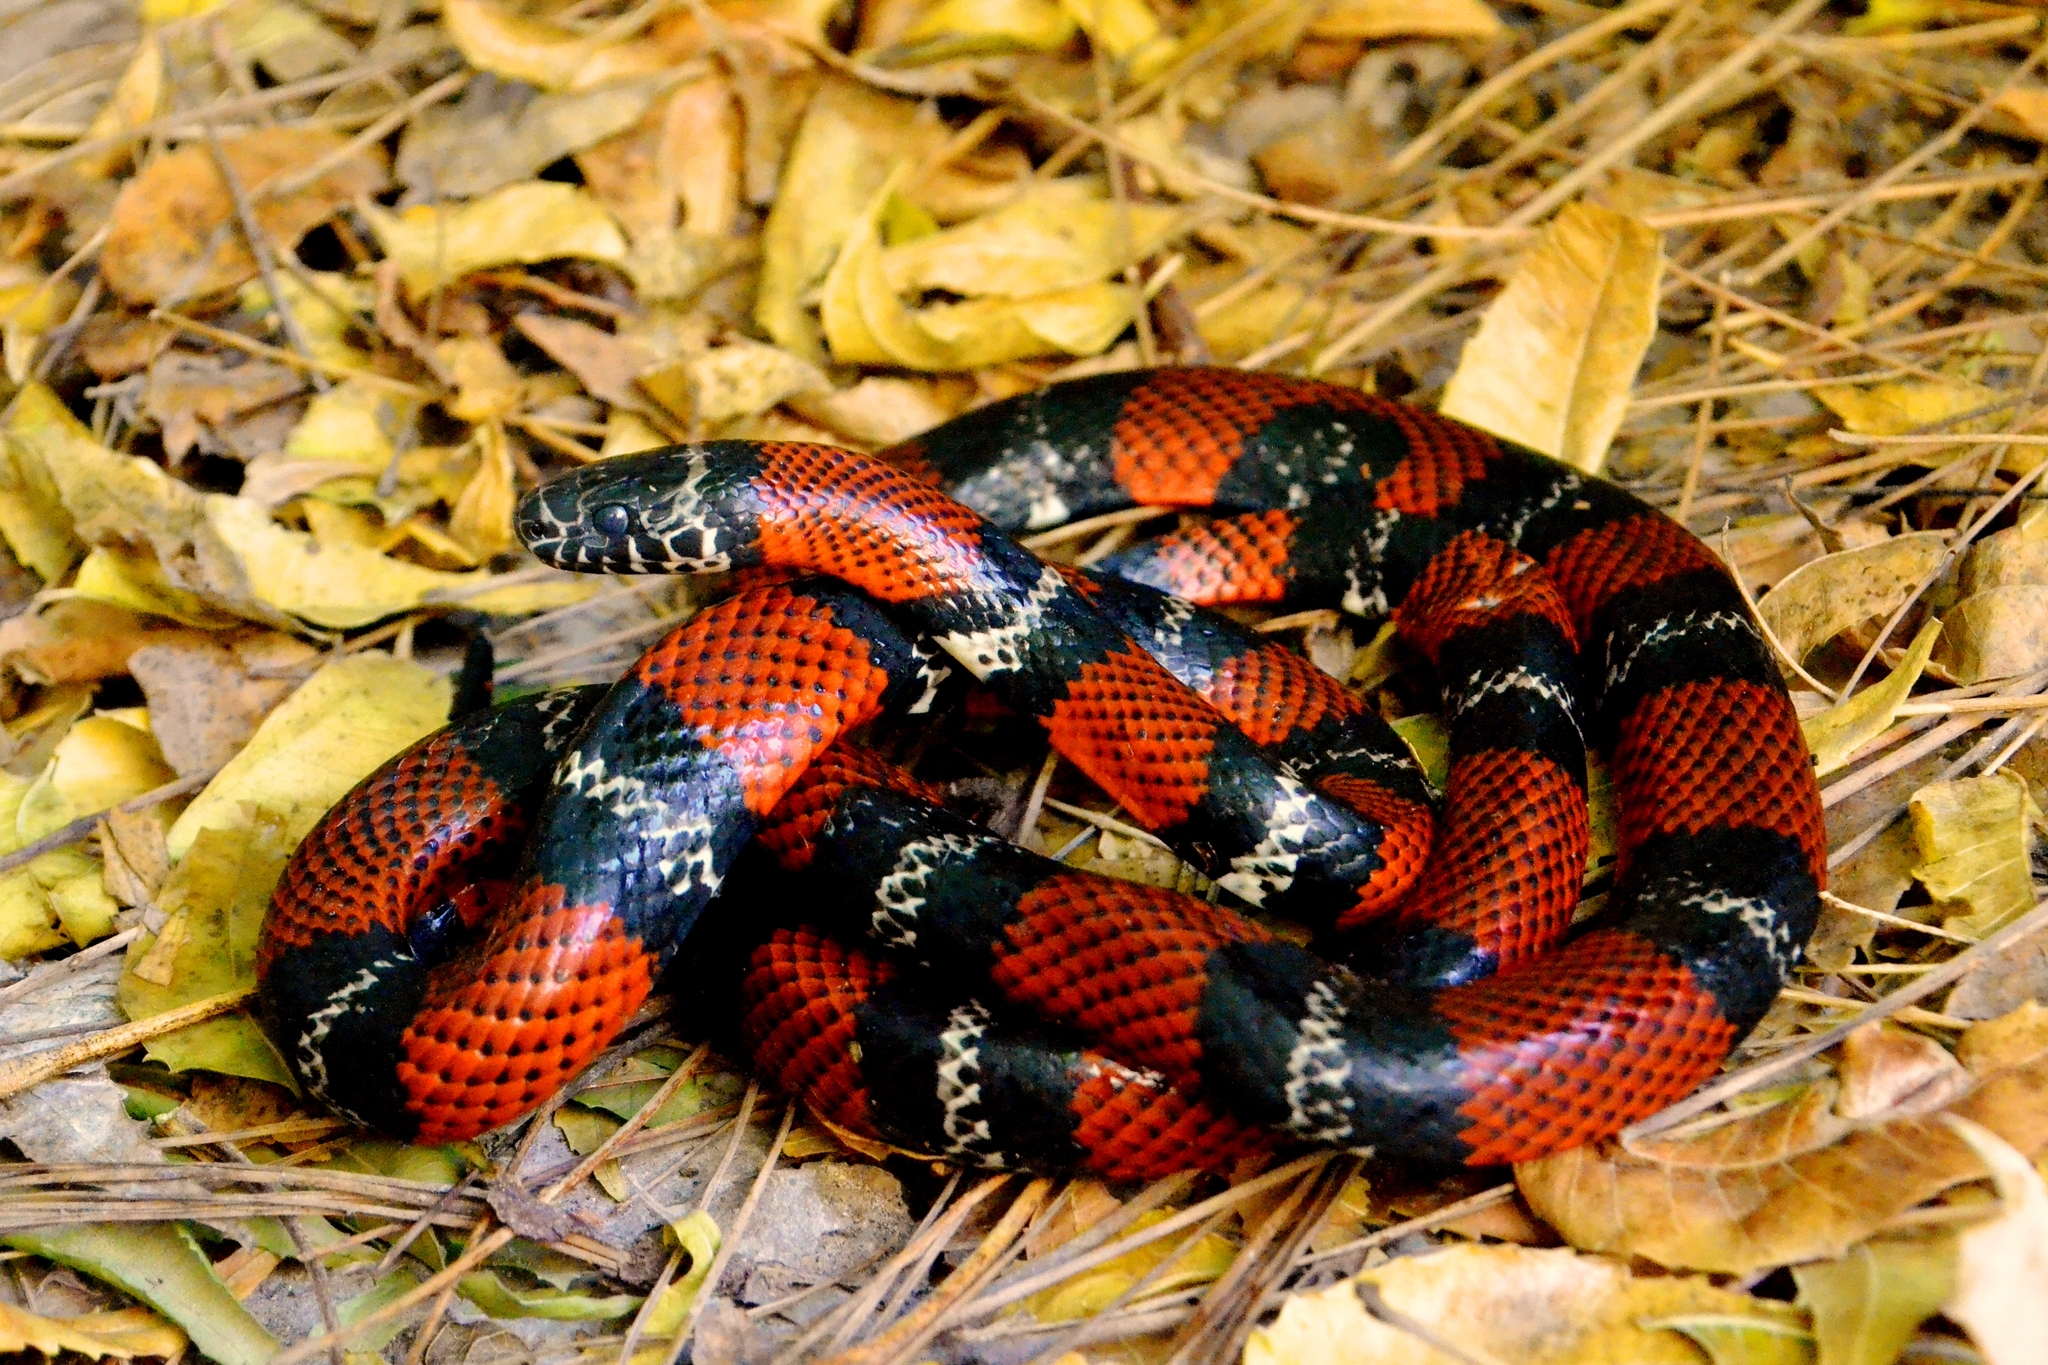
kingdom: Animalia
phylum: Chordata
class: Squamata
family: Colubridae
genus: Lampropeltis
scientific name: Lampropeltis abnorma
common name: Honduran milk snake
